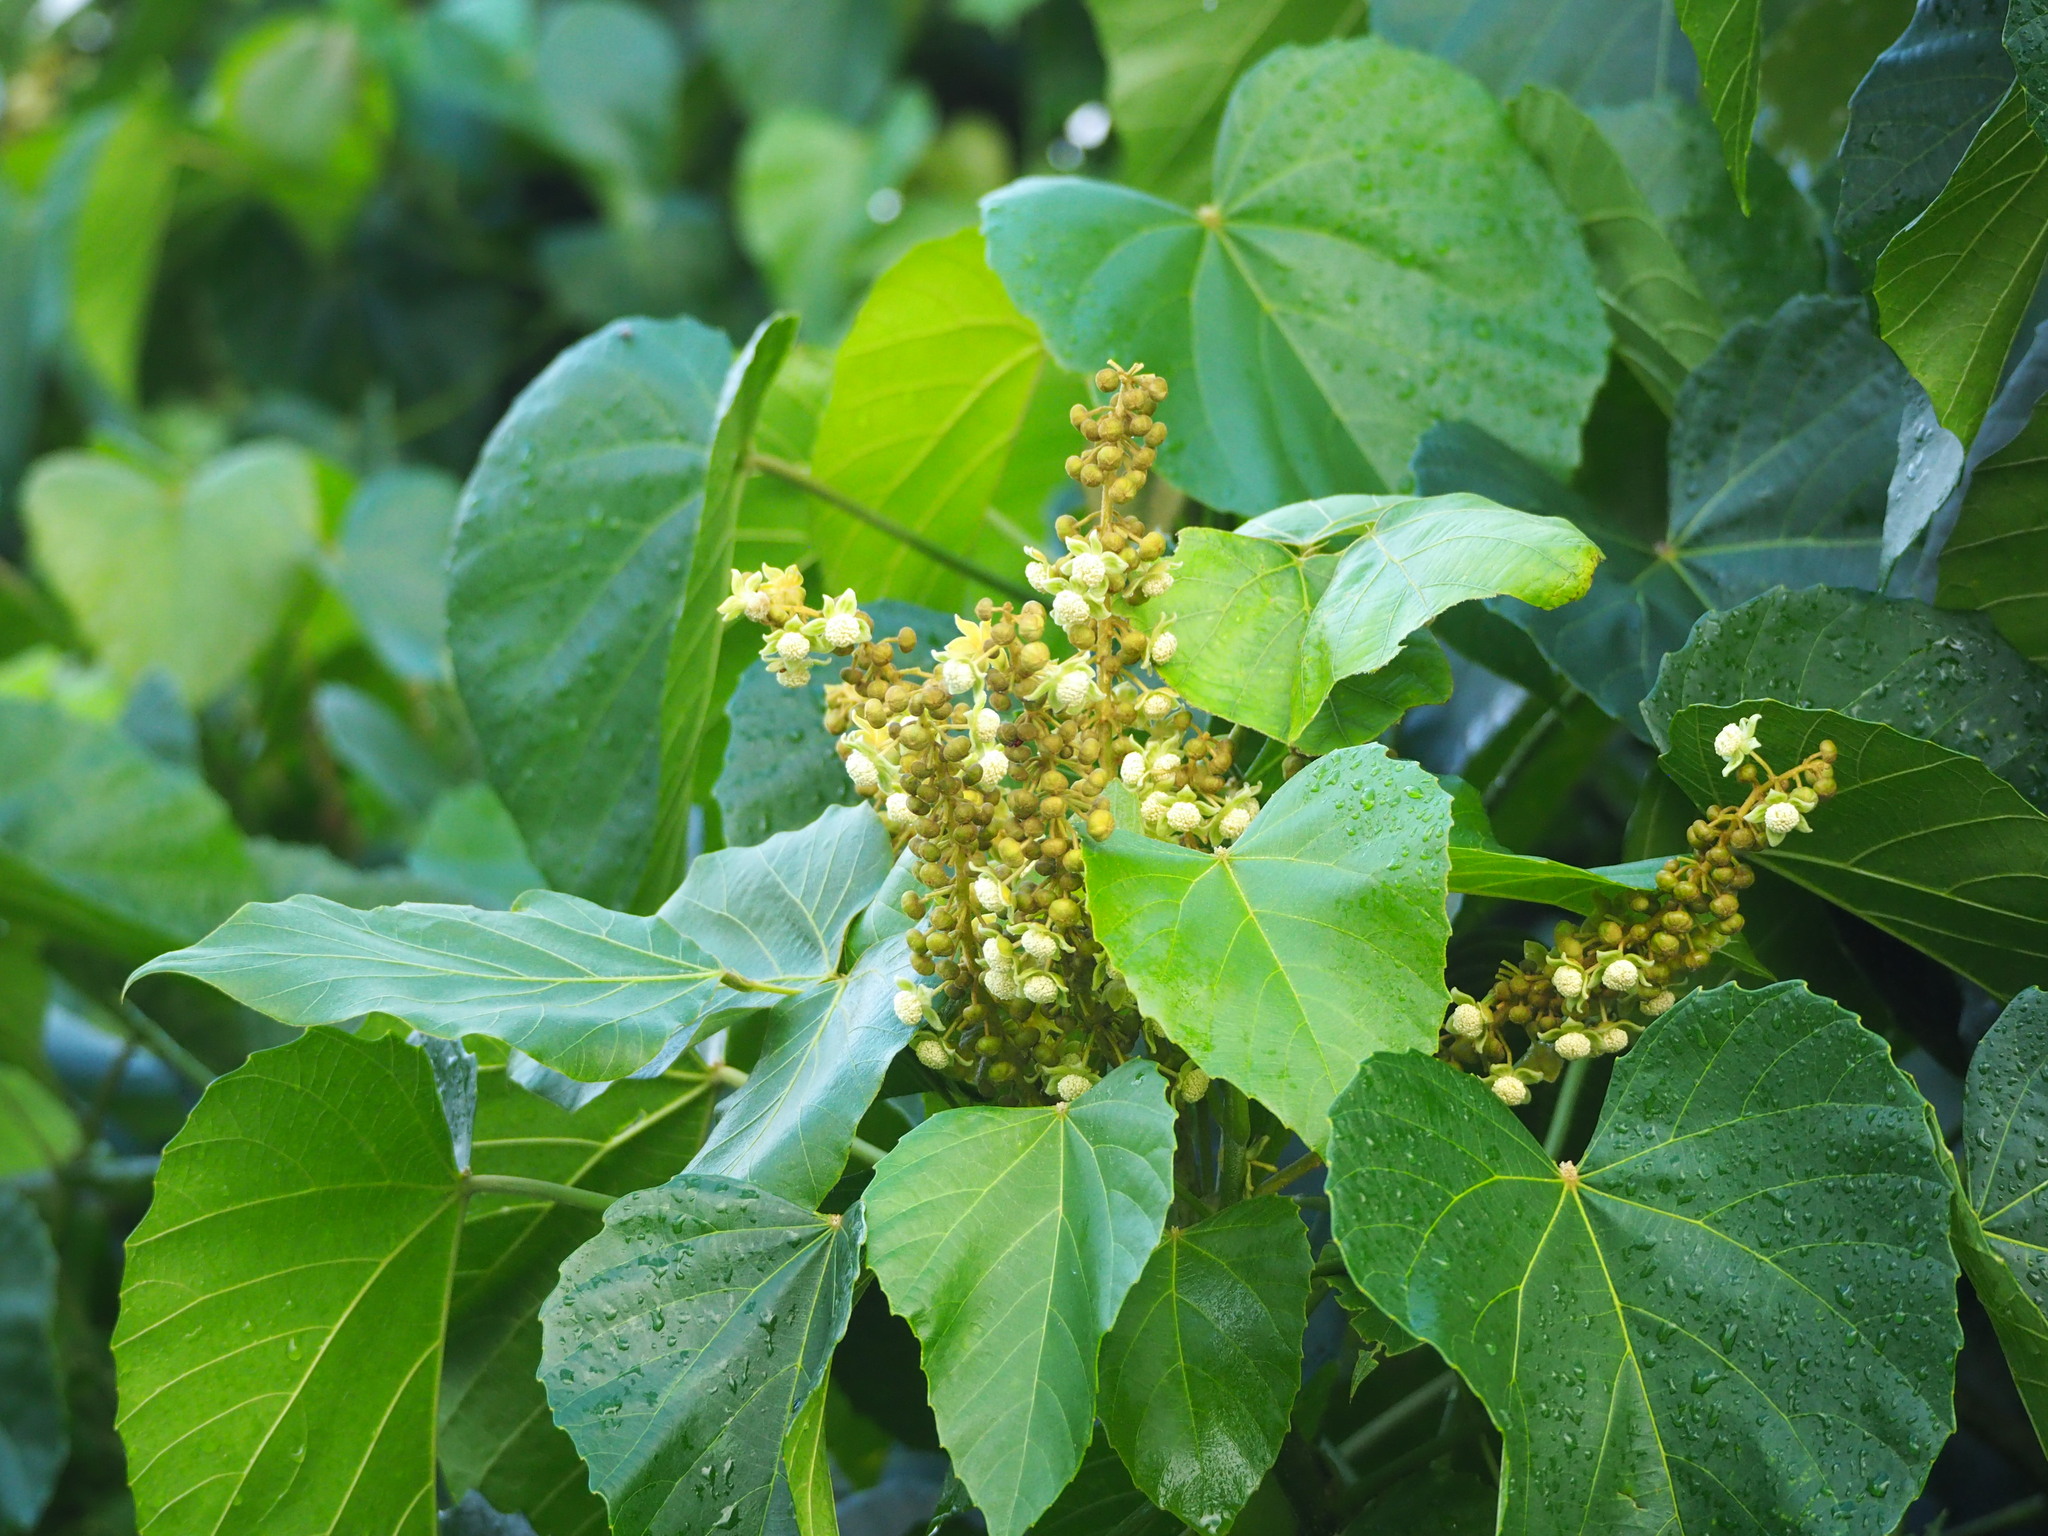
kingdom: Plantae
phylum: Tracheophyta
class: Magnoliopsida
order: Malpighiales
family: Euphorbiaceae
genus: Melanolepis
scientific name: Melanolepis multiglandulosa
